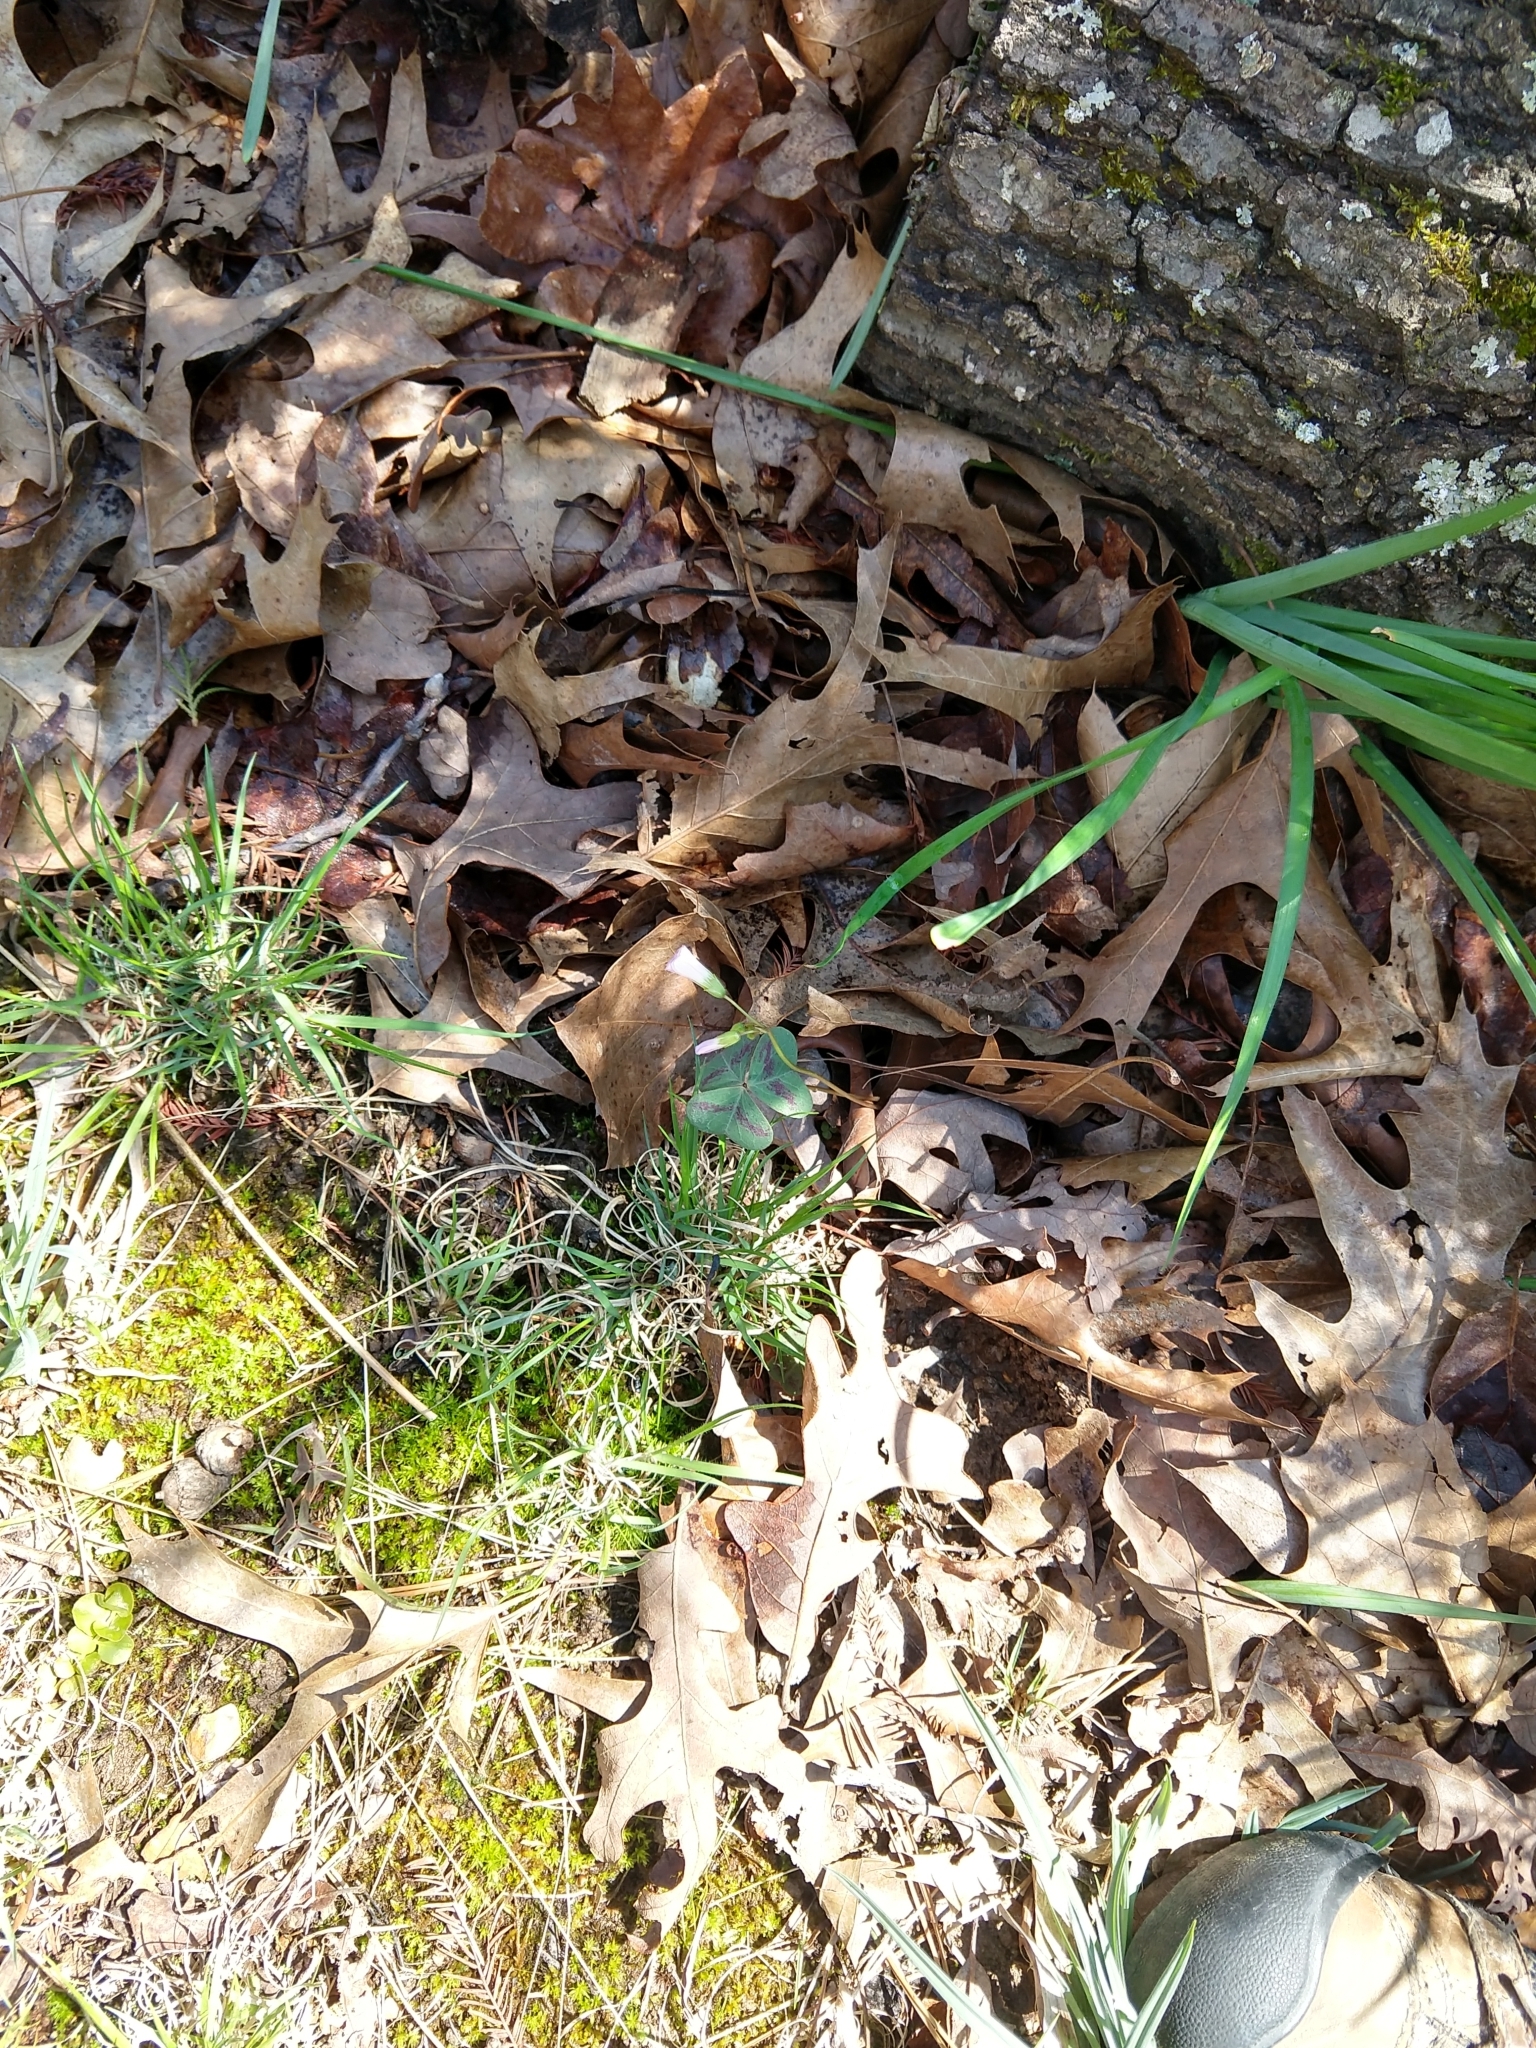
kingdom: Plantae
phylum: Tracheophyta
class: Magnoliopsida
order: Oxalidales
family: Oxalidaceae
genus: Oxalis
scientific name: Oxalis violacea
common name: Violet wood-sorrel
